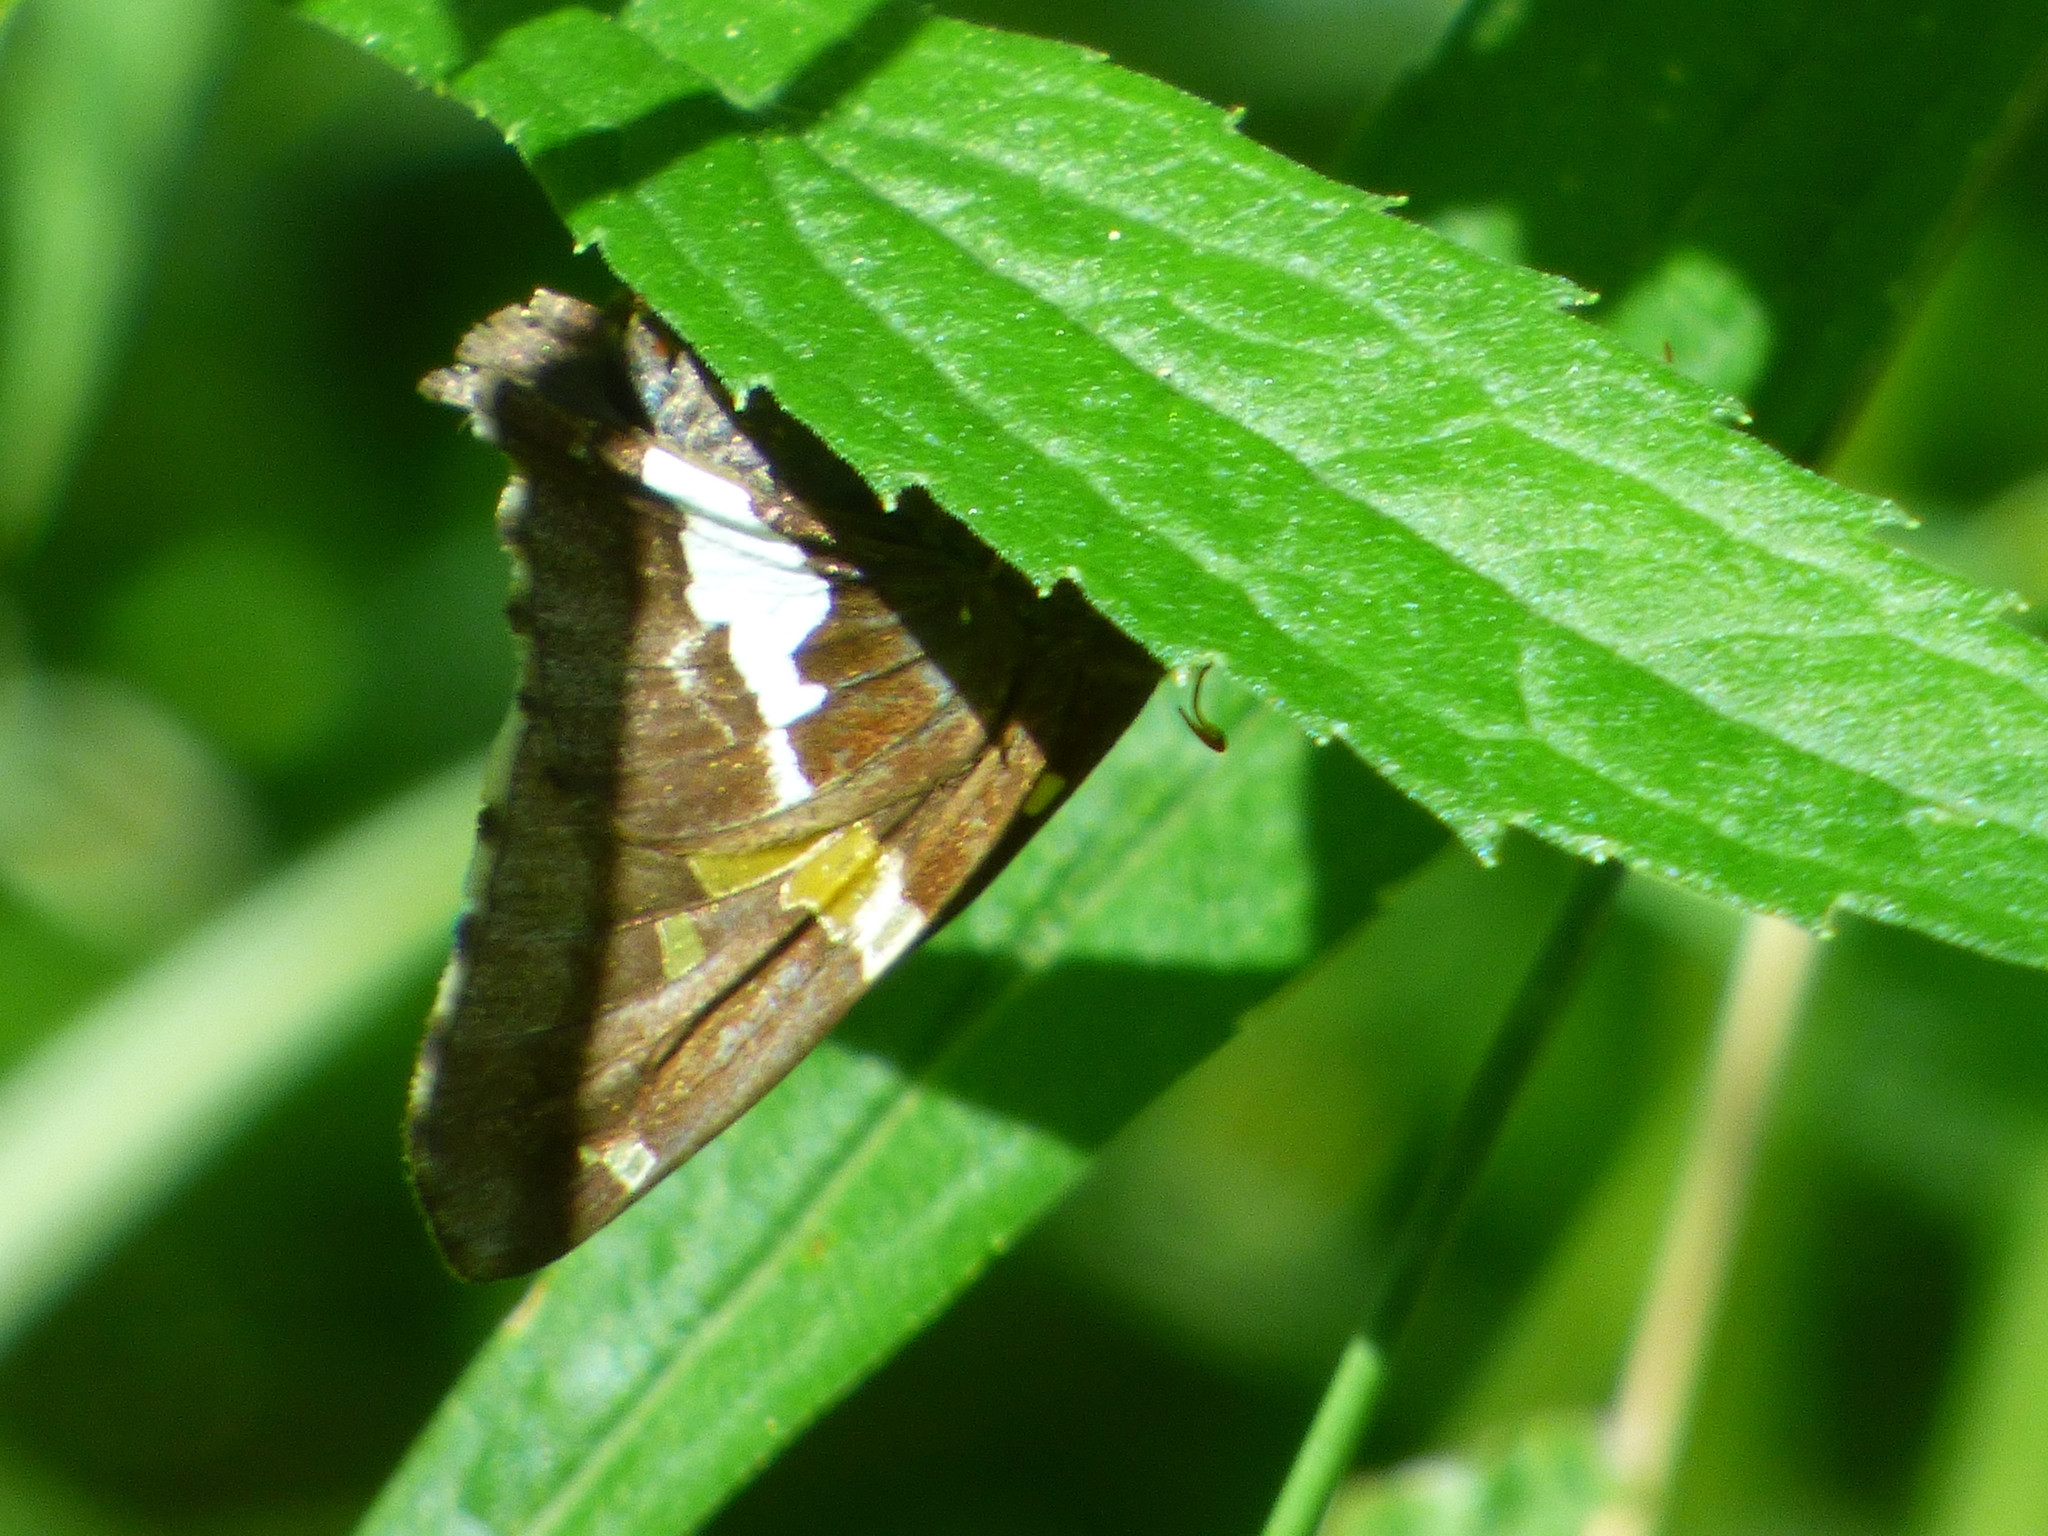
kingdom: Animalia
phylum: Arthropoda
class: Insecta
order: Lepidoptera
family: Hesperiidae
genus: Epargyreus
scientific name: Epargyreus clarus
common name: Silver-spotted skipper
